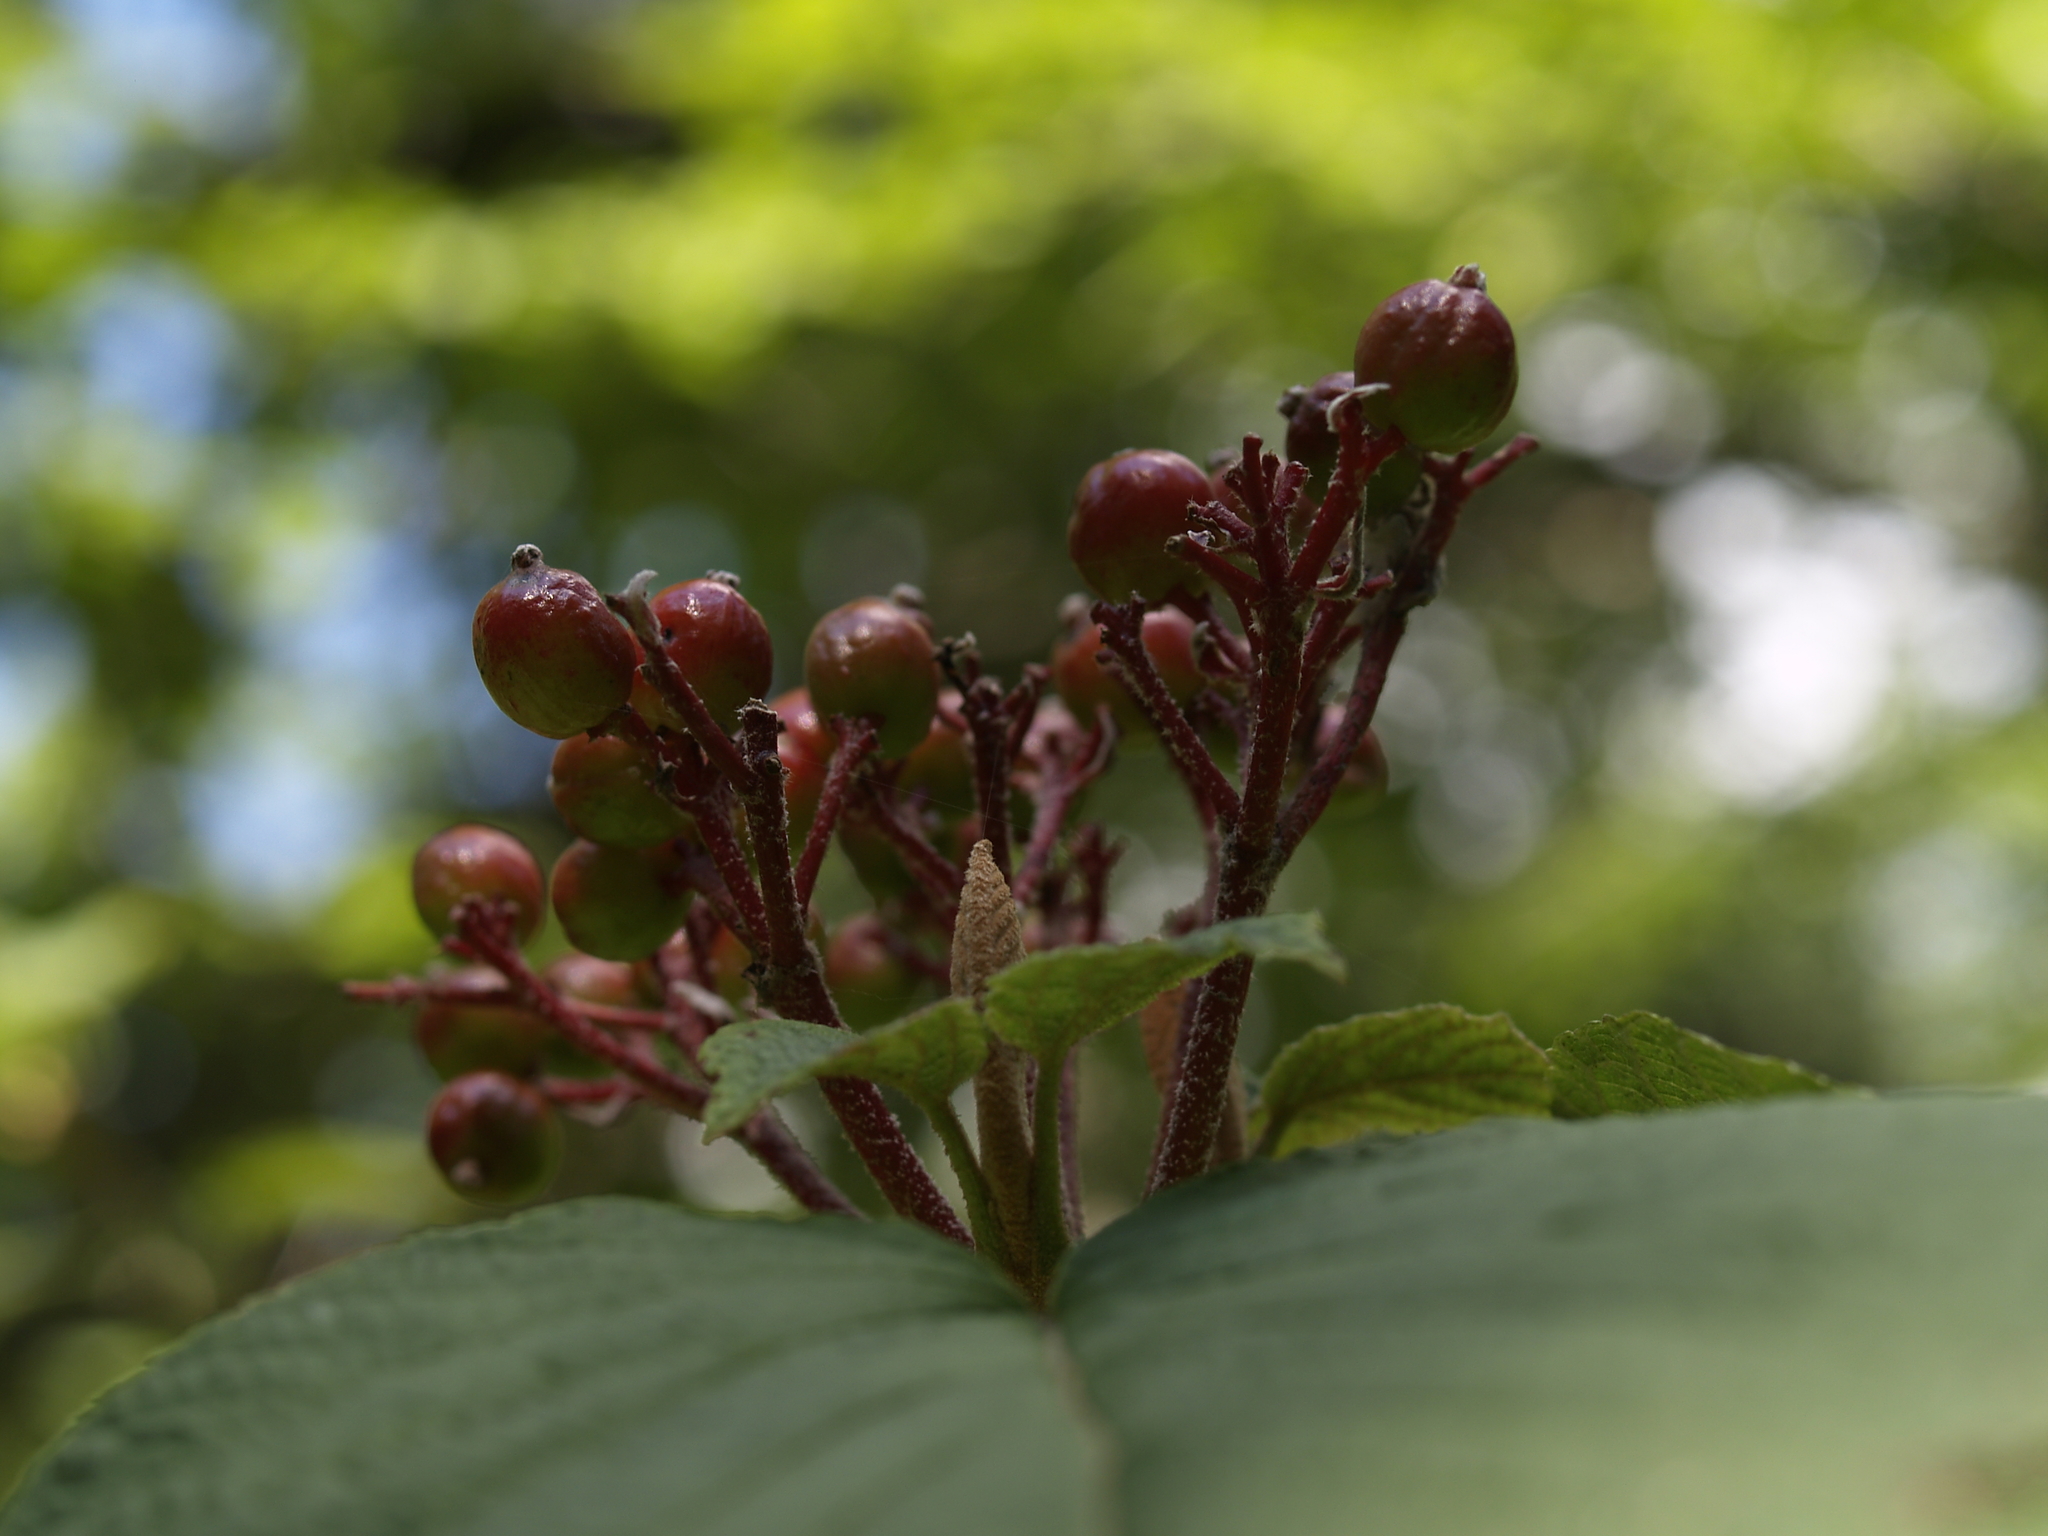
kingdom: Plantae
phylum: Tracheophyta
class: Magnoliopsida
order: Dipsacales
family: Viburnaceae
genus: Viburnum
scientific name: Viburnum lantanoides
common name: Hobblebush
